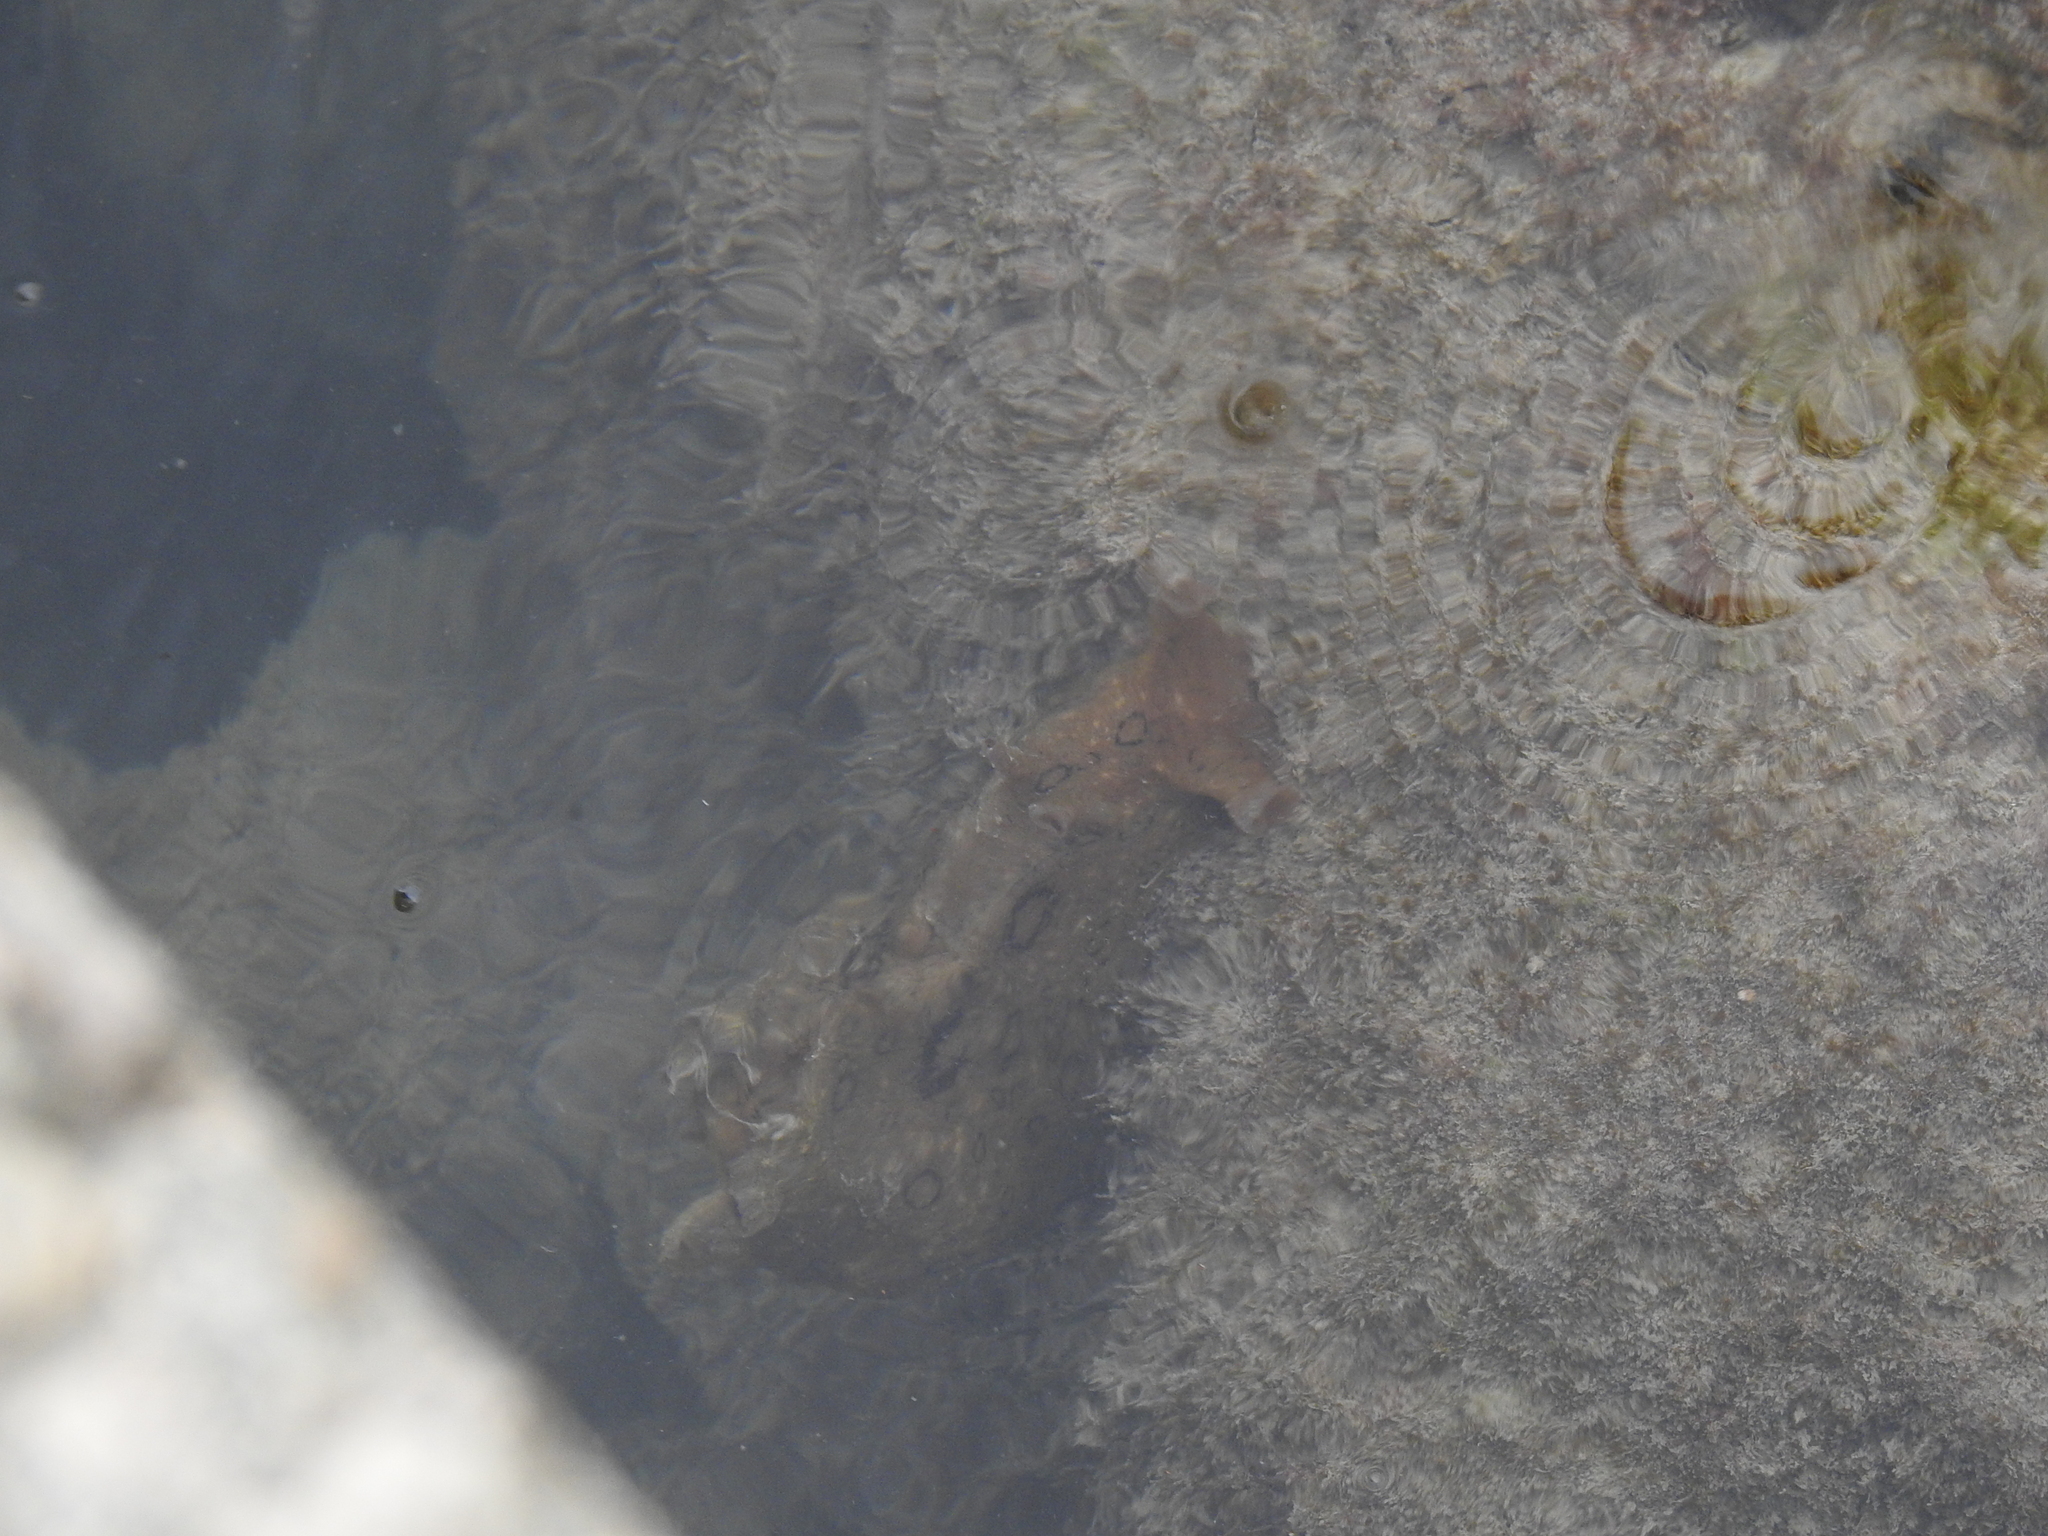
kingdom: Animalia
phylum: Mollusca
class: Gastropoda
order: Aplysiida
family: Aplysiidae
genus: Aplysia
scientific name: Aplysia dactylomela
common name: Large-spotted sea hare
